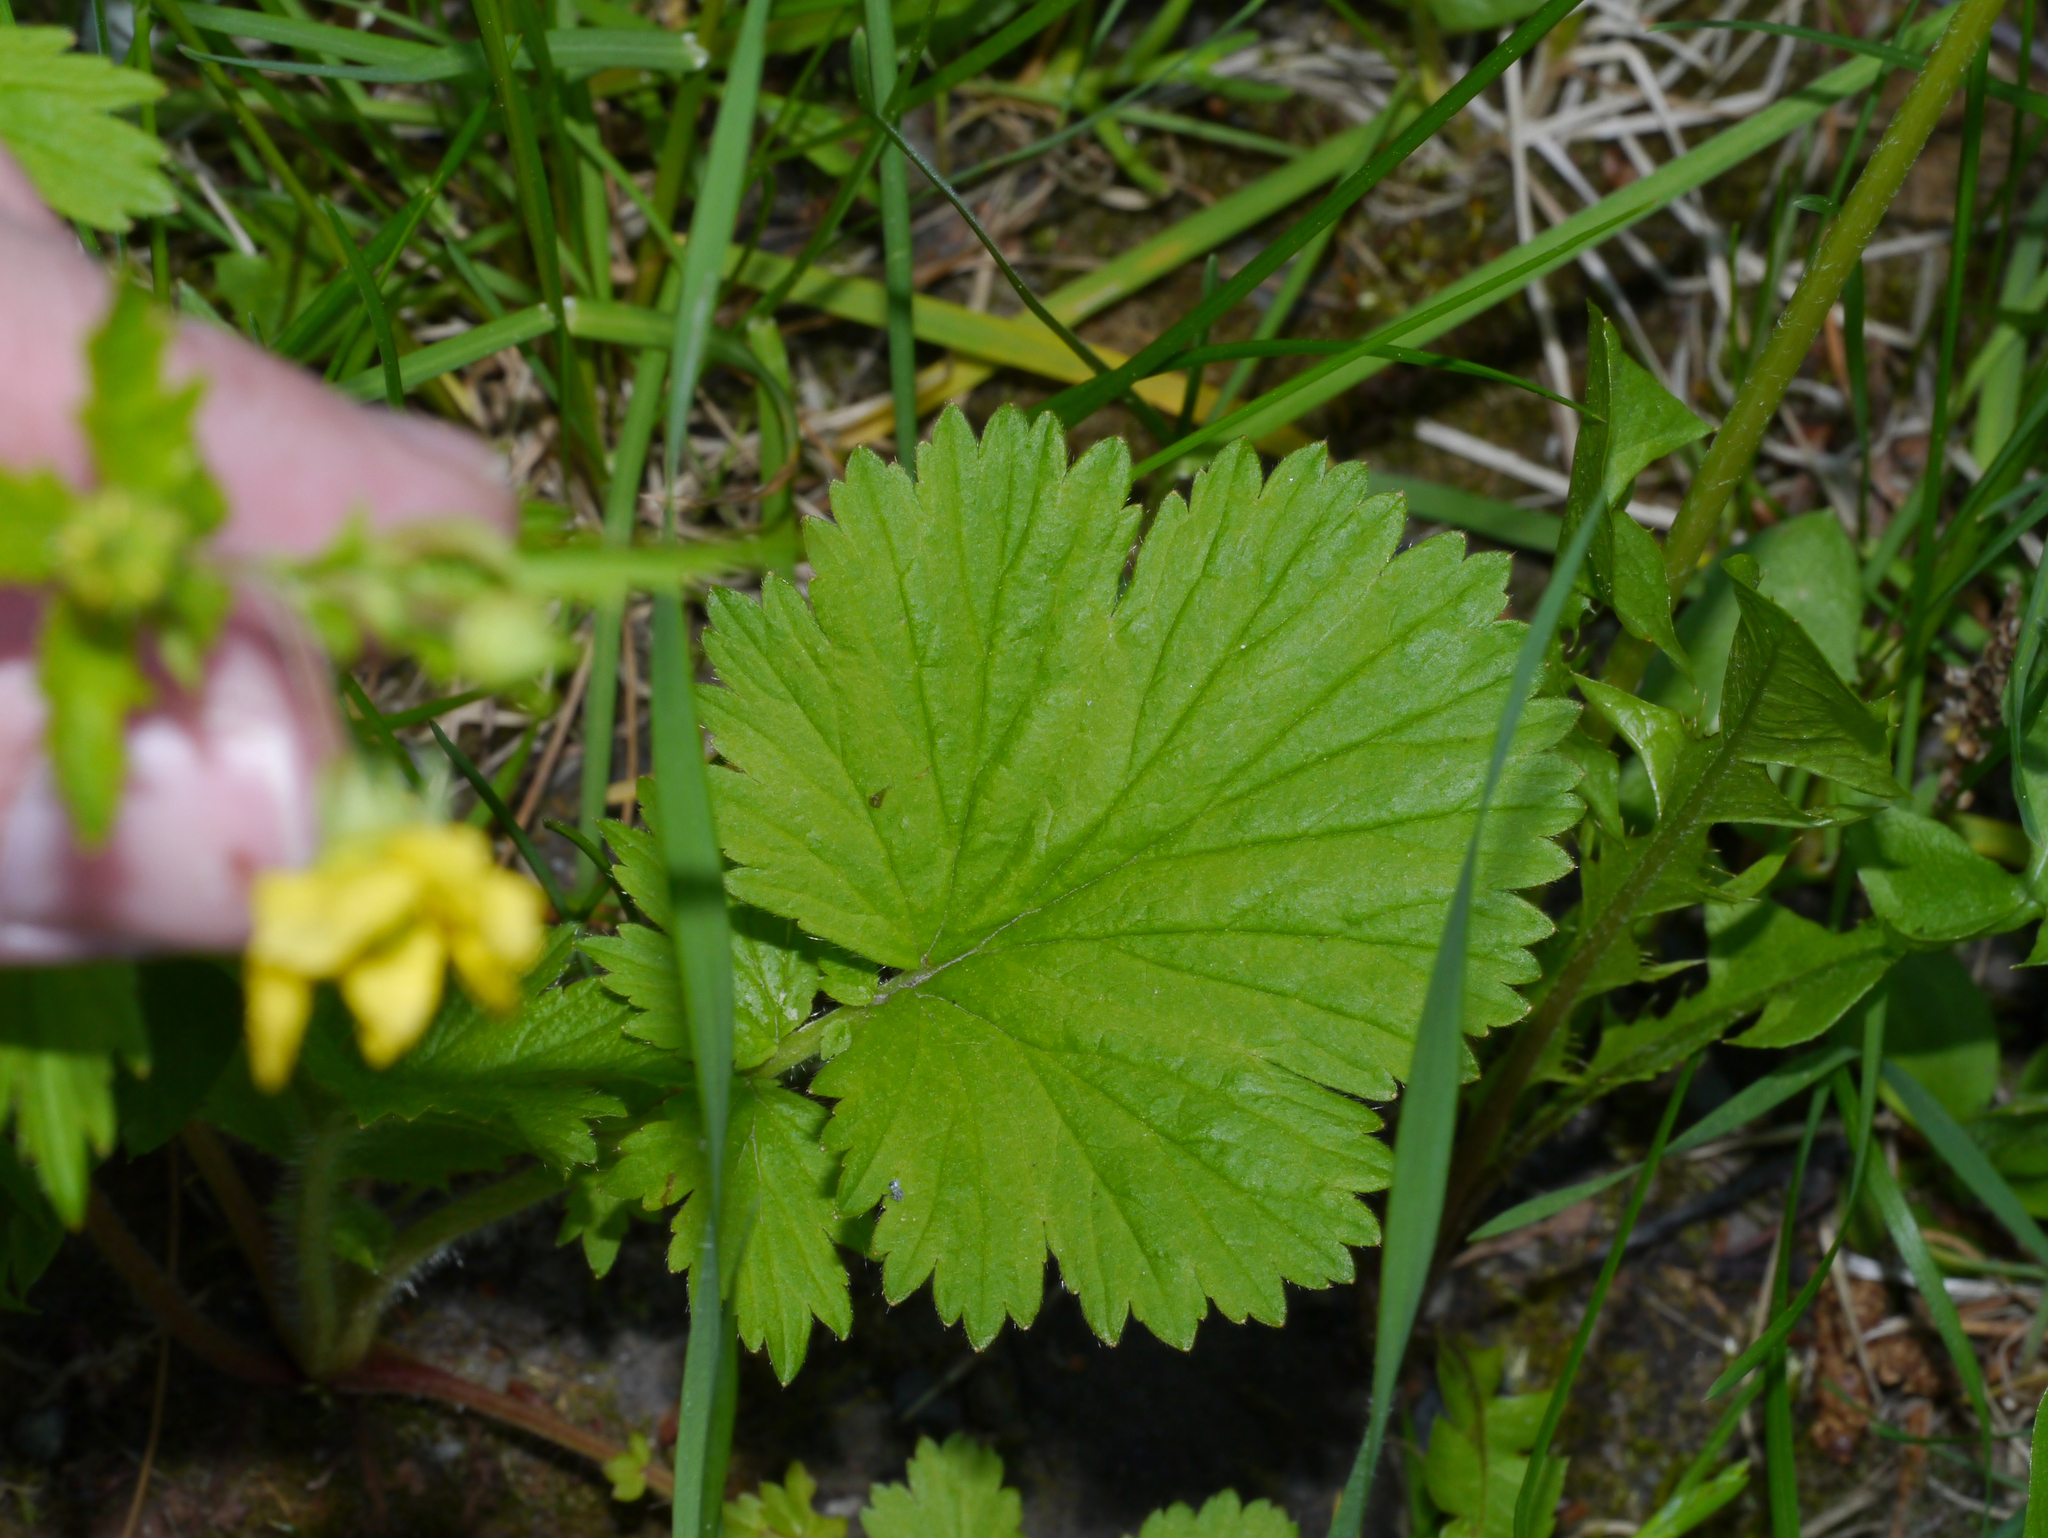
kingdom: Plantae
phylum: Tracheophyta
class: Magnoliopsida
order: Rosales
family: Rosaceae
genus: Geum
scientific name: Geum macrophyllum
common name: Large-leaved avens
